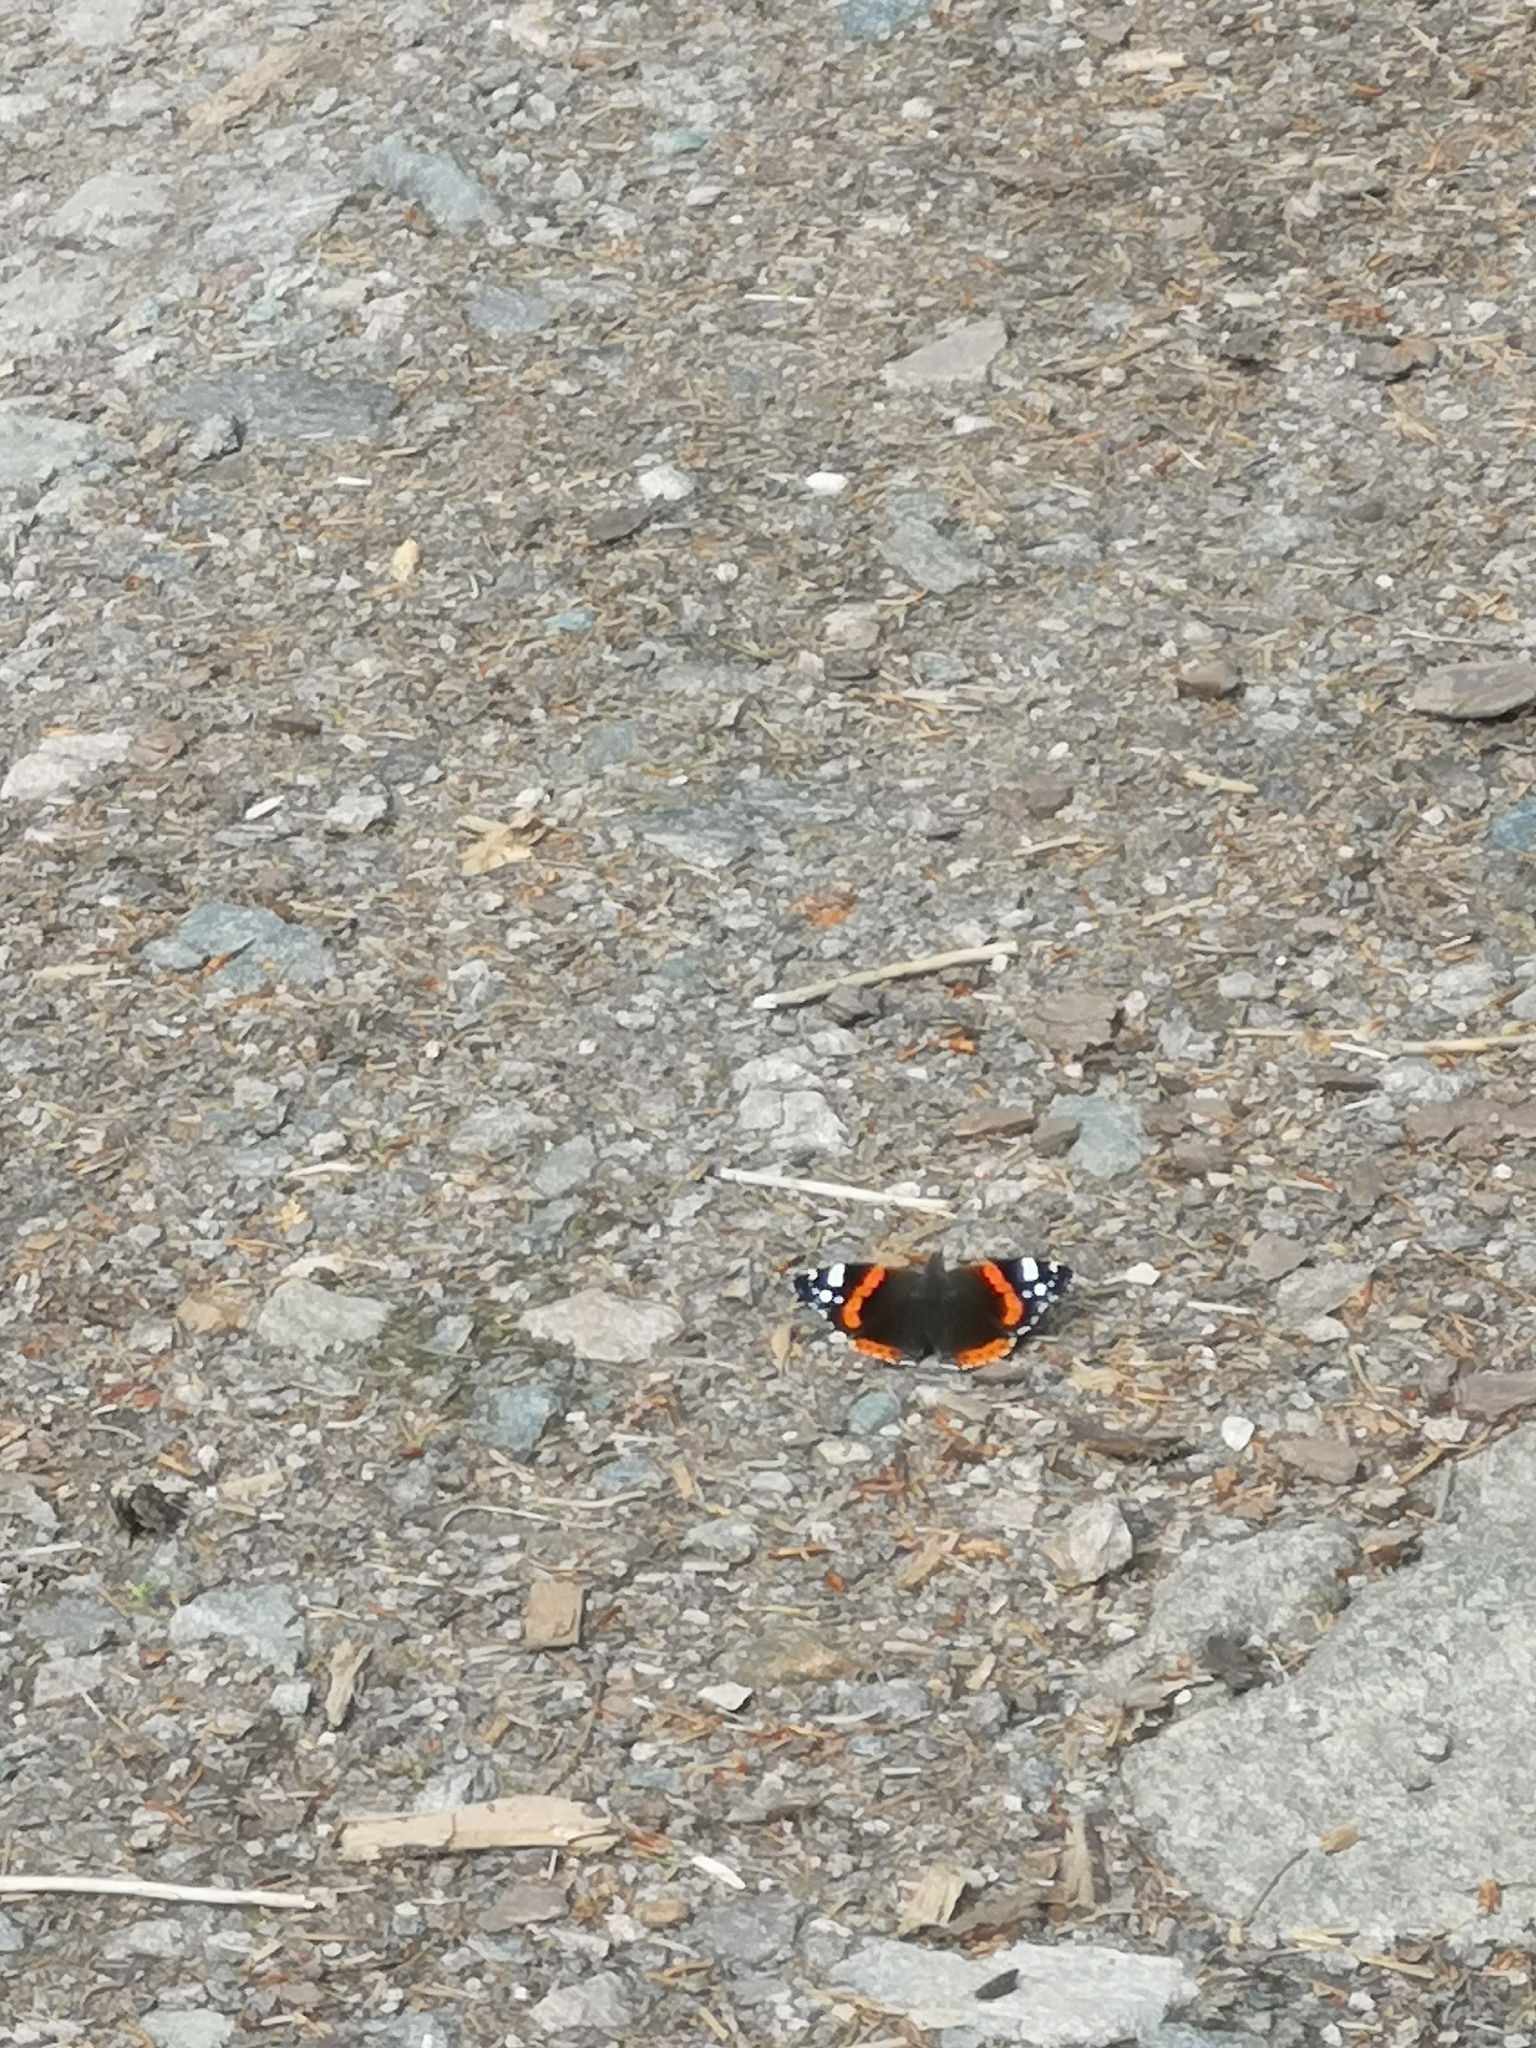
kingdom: Animalia
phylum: Arthropoda
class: Insecta
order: Lepidoptera
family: Nymphalidae
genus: Vanessa
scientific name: Vanessa atalanta
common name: Red admiral
